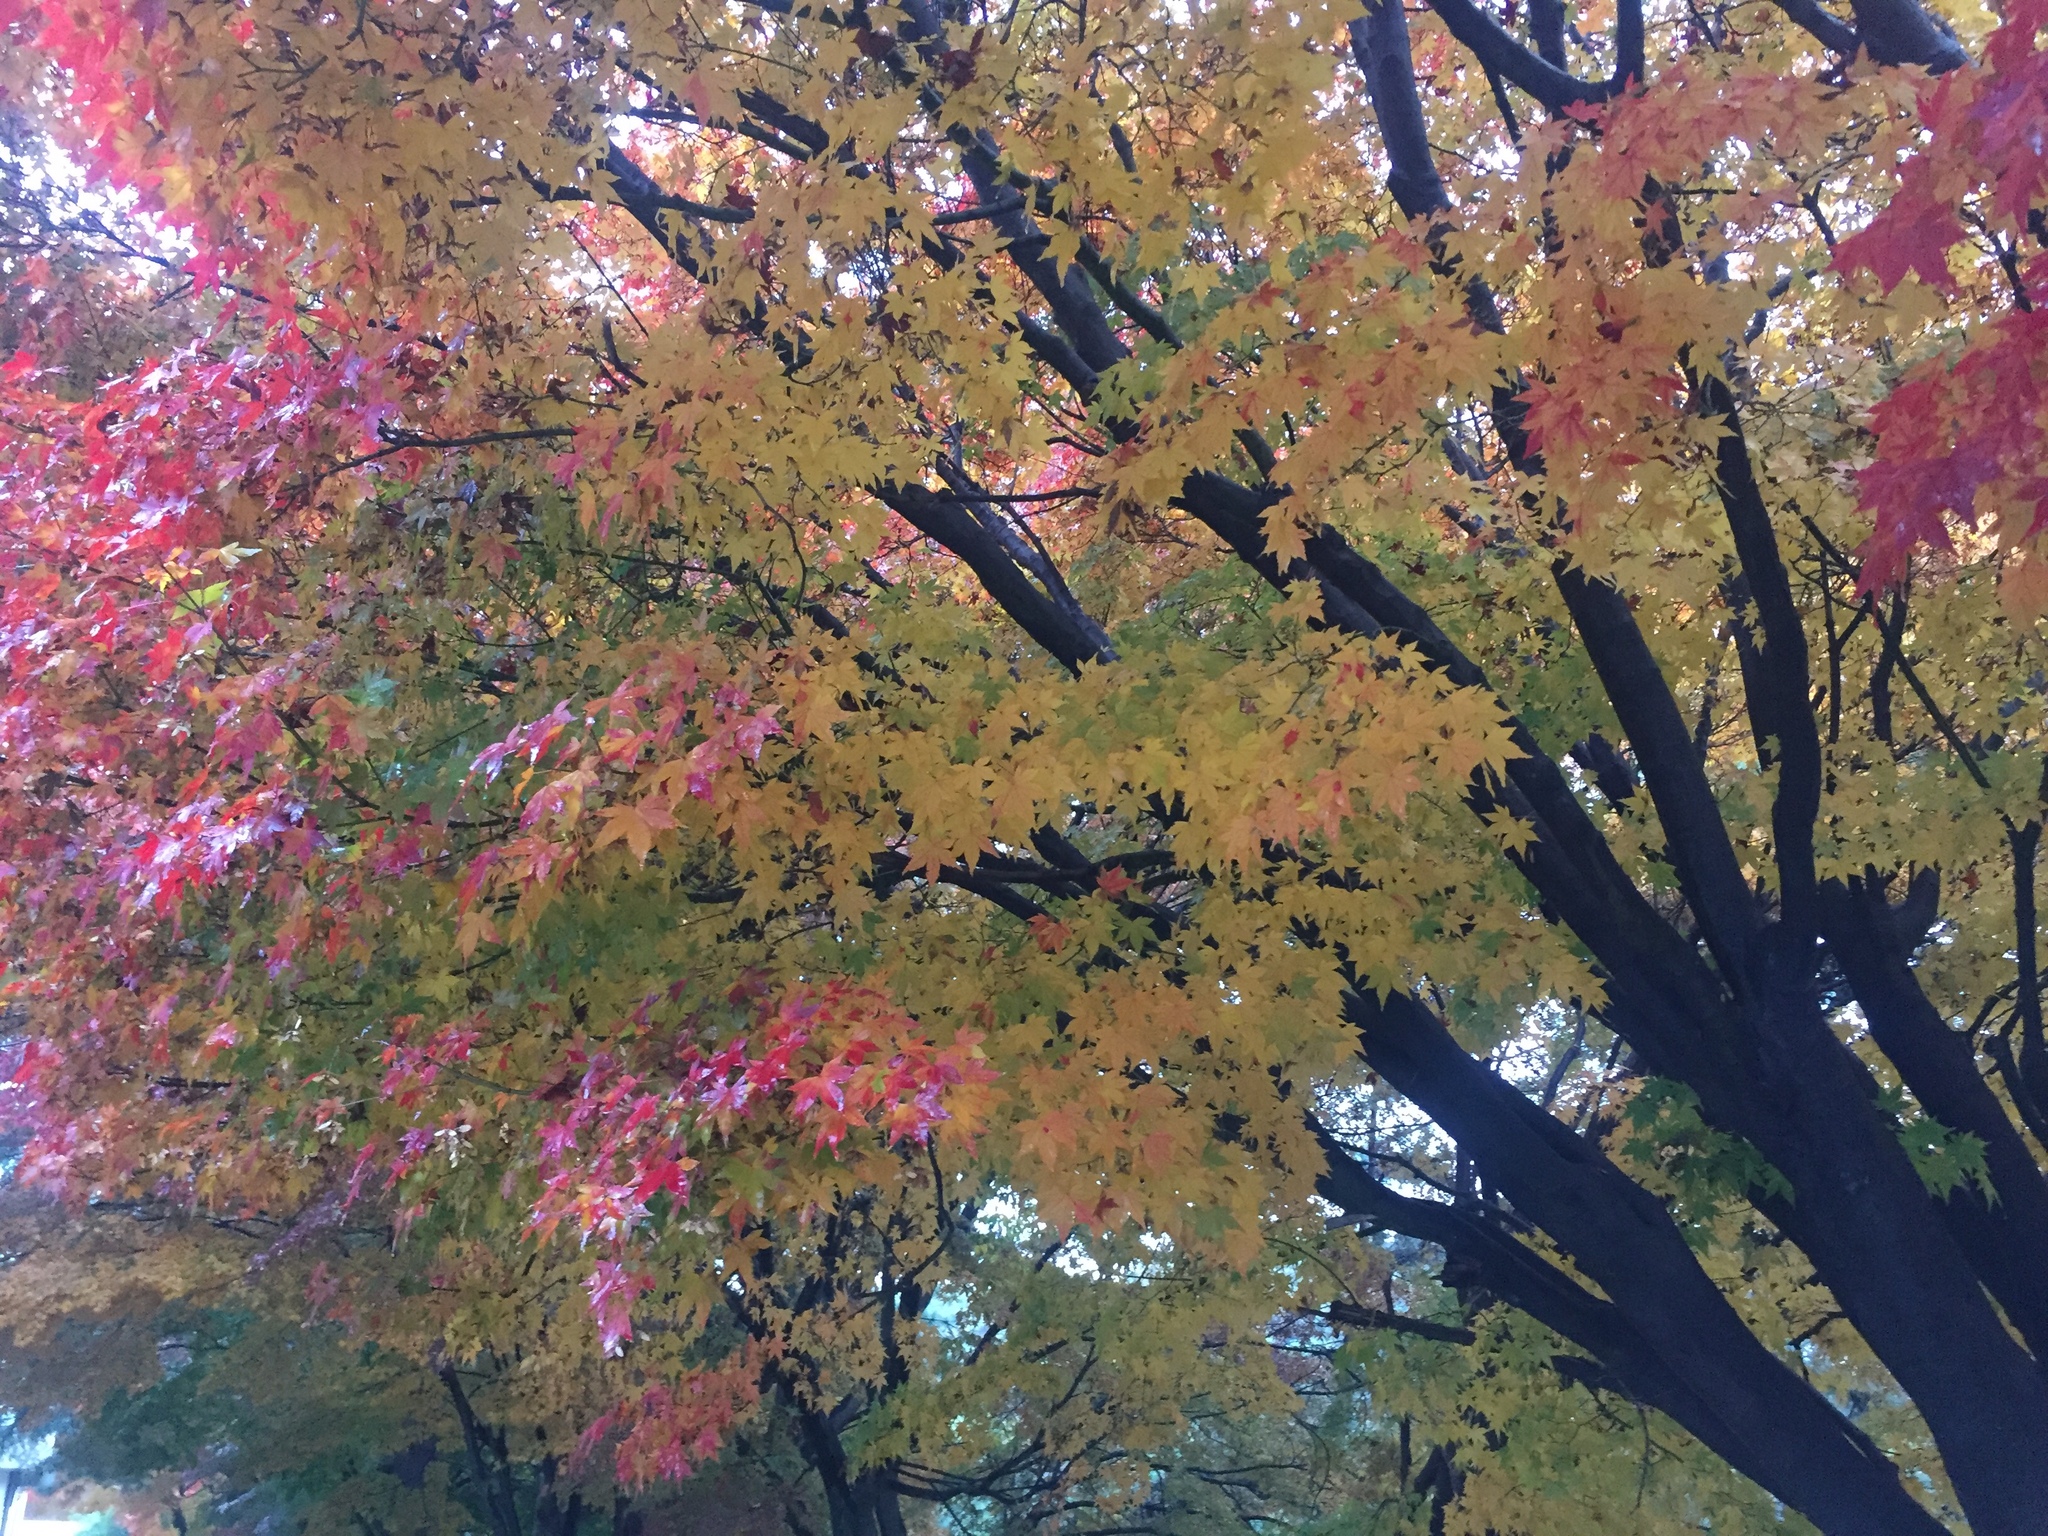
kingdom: Plantae
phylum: Tracheophyta
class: Magnoliopsida
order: Sapindales
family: Sapindaceae
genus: Acer
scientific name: Acer palmatum
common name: Japanese maple
